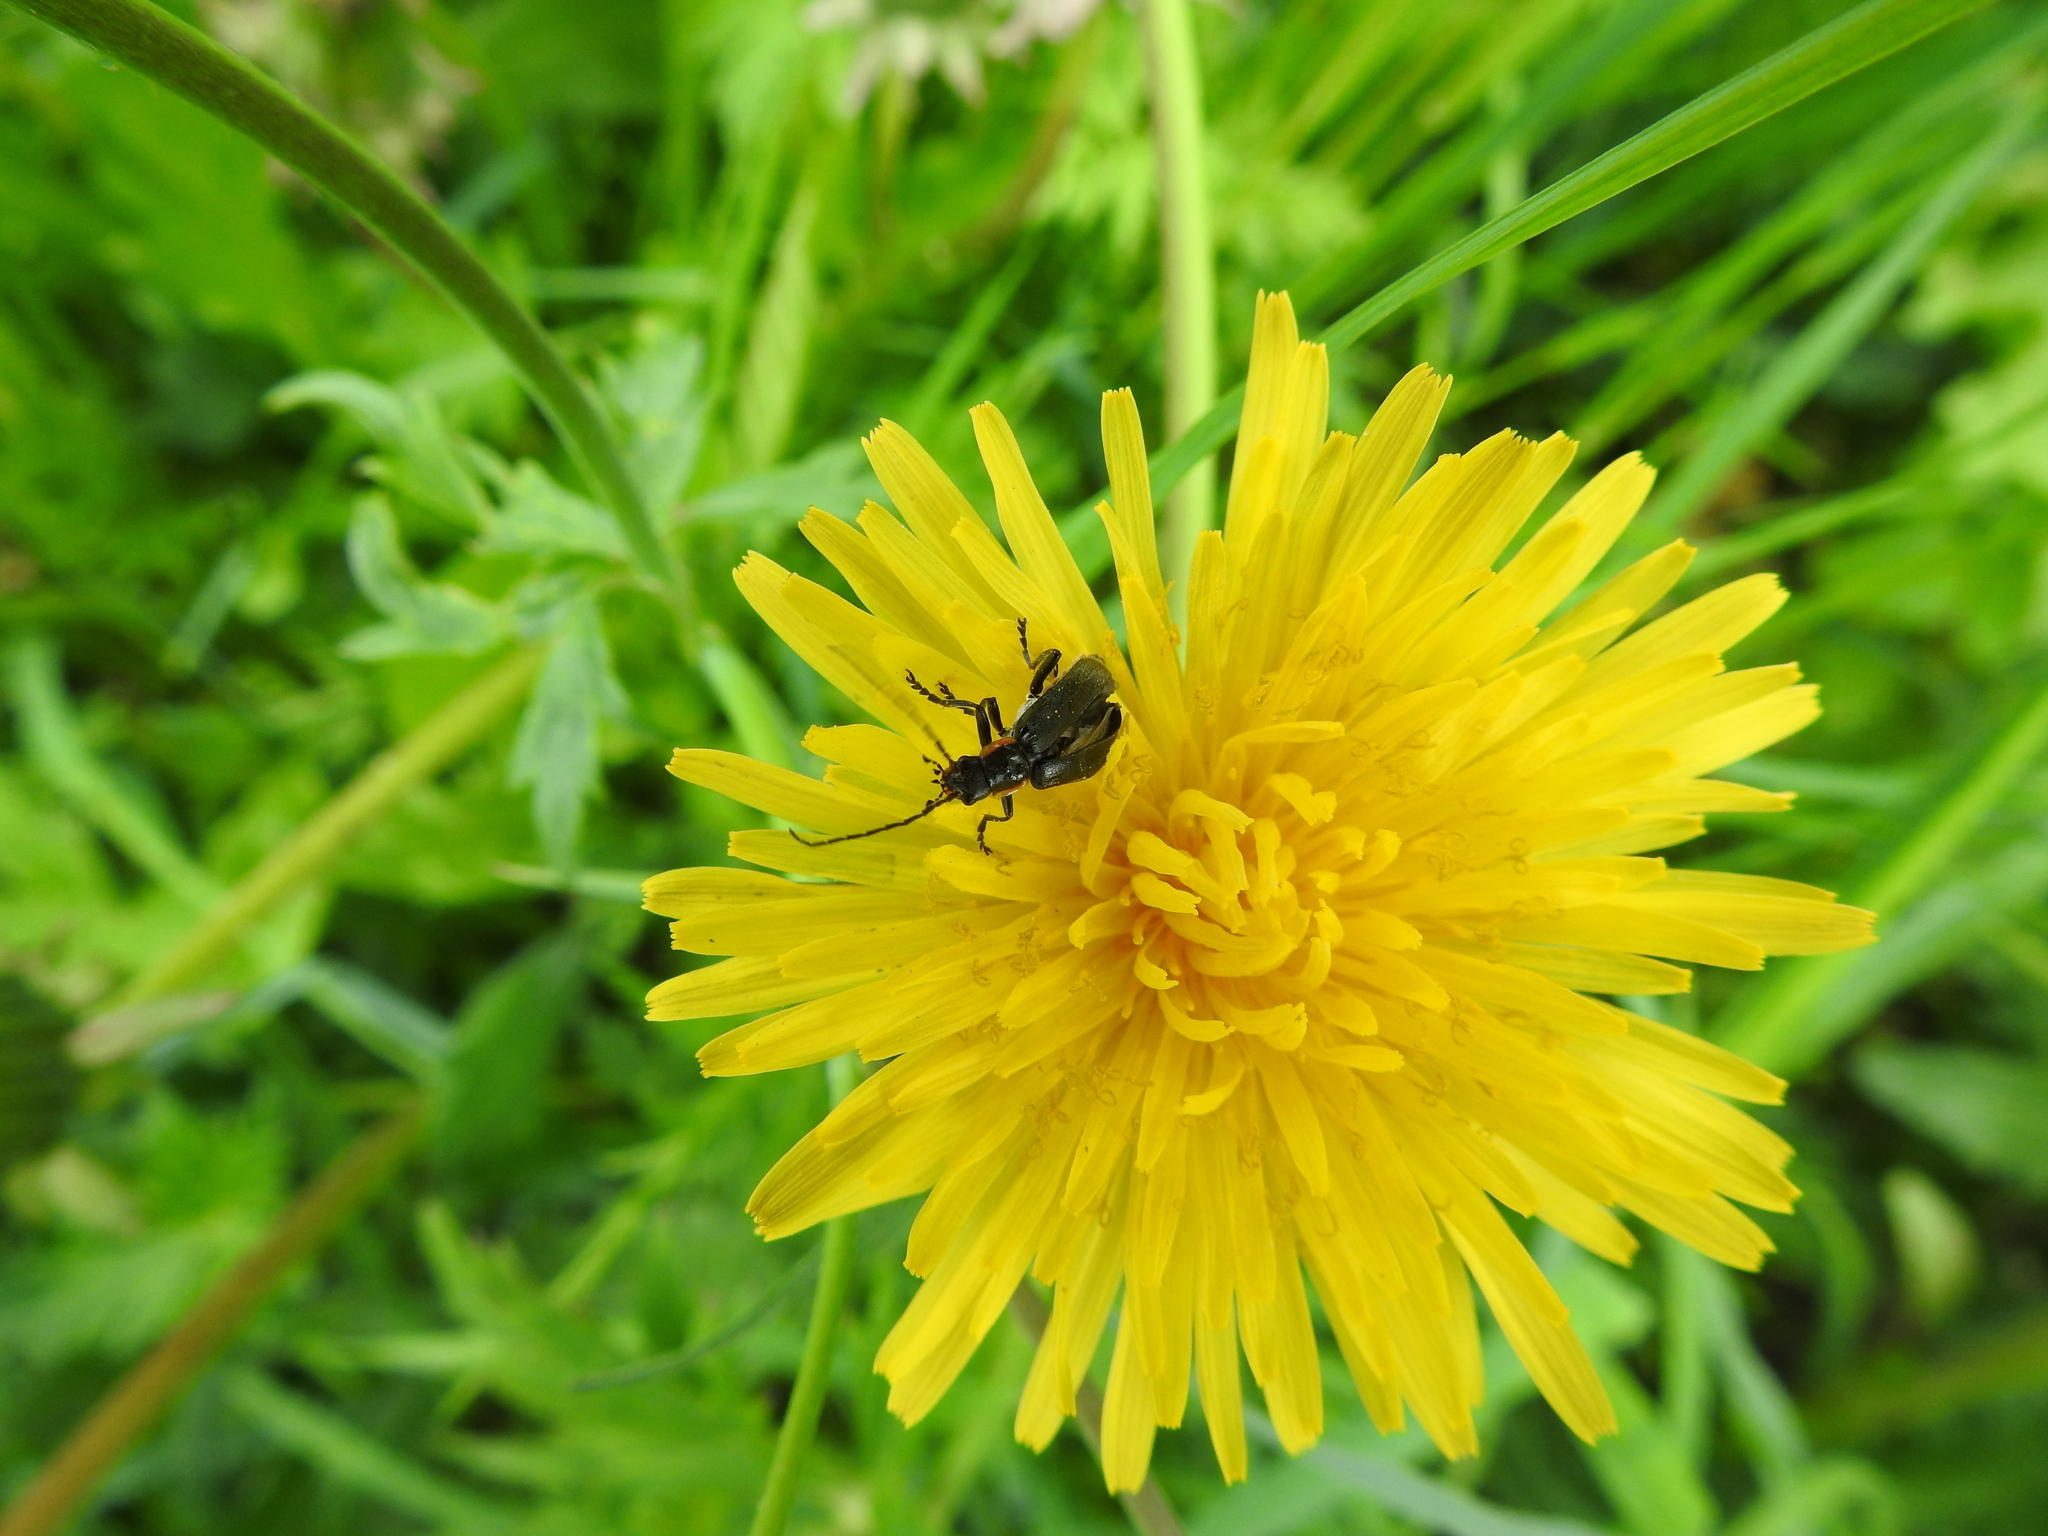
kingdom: Animalia
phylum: Arthropoda
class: Insecta
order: Coleoptera
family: Cantharidae
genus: Cantharis
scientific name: Cantharis obscura
